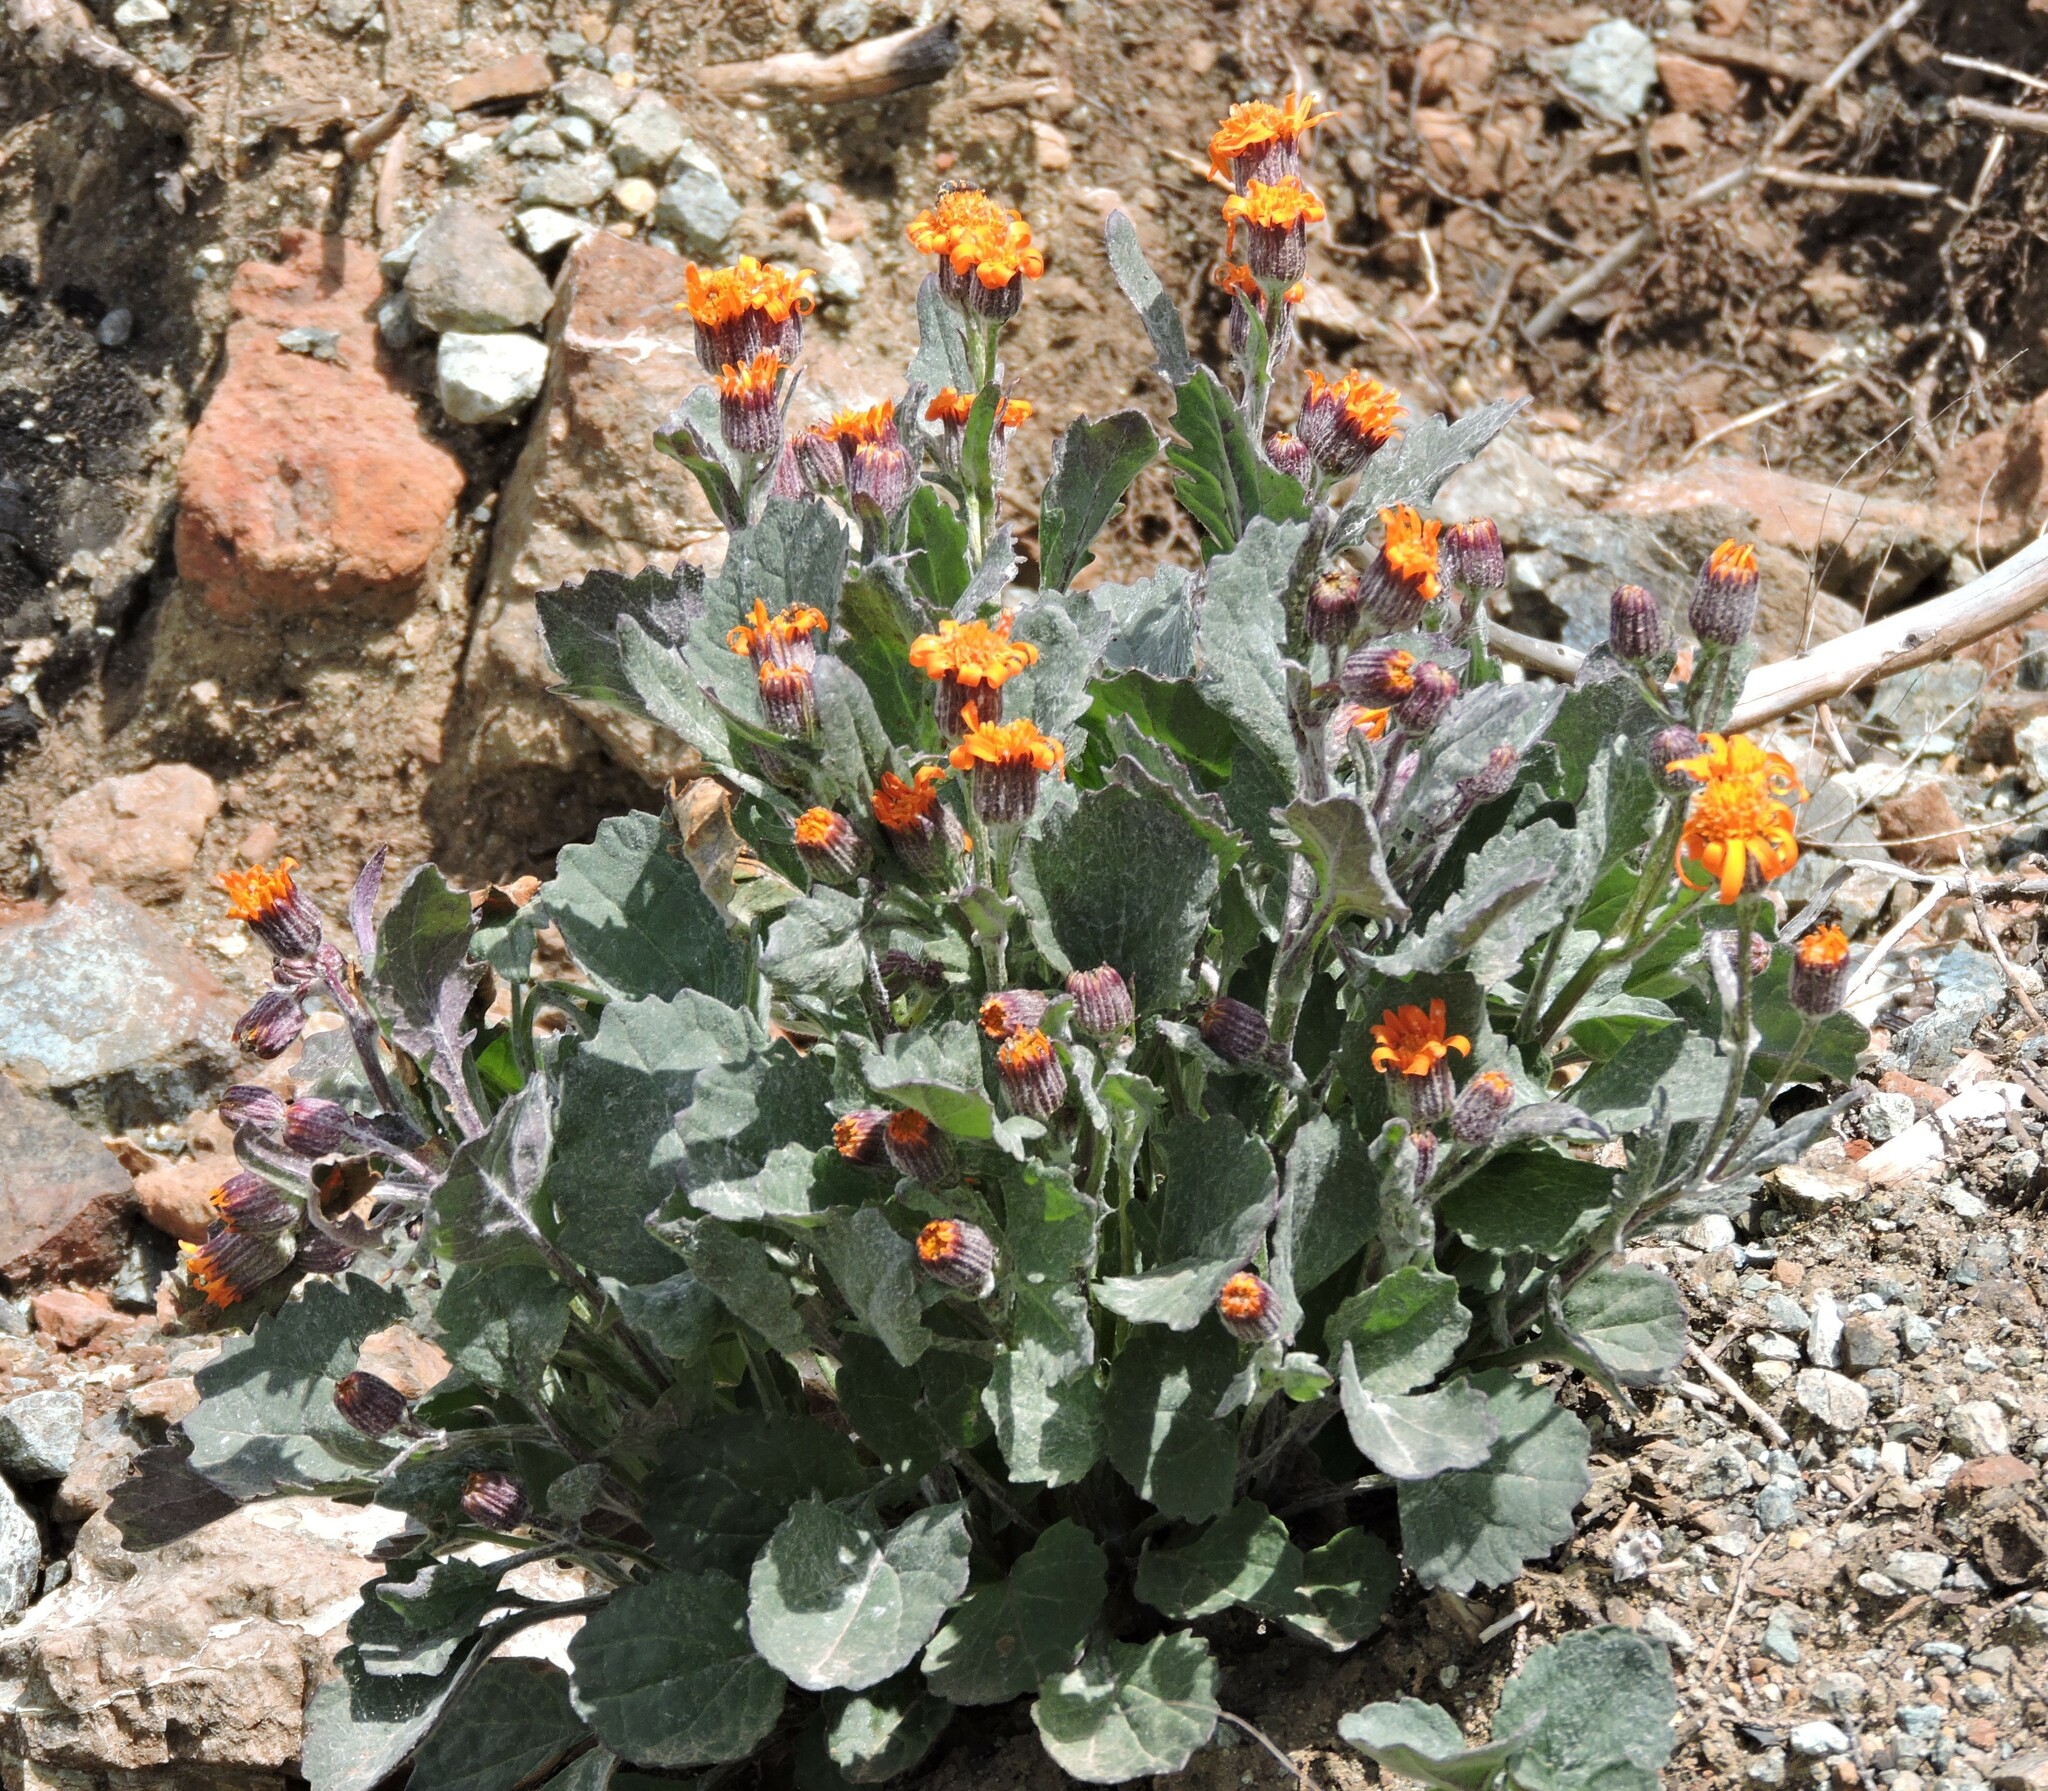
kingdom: Plantae
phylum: Tracheophyta
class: Magnoliopsida
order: Asterales
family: Asteraceae
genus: Packera
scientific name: Packera greenei
